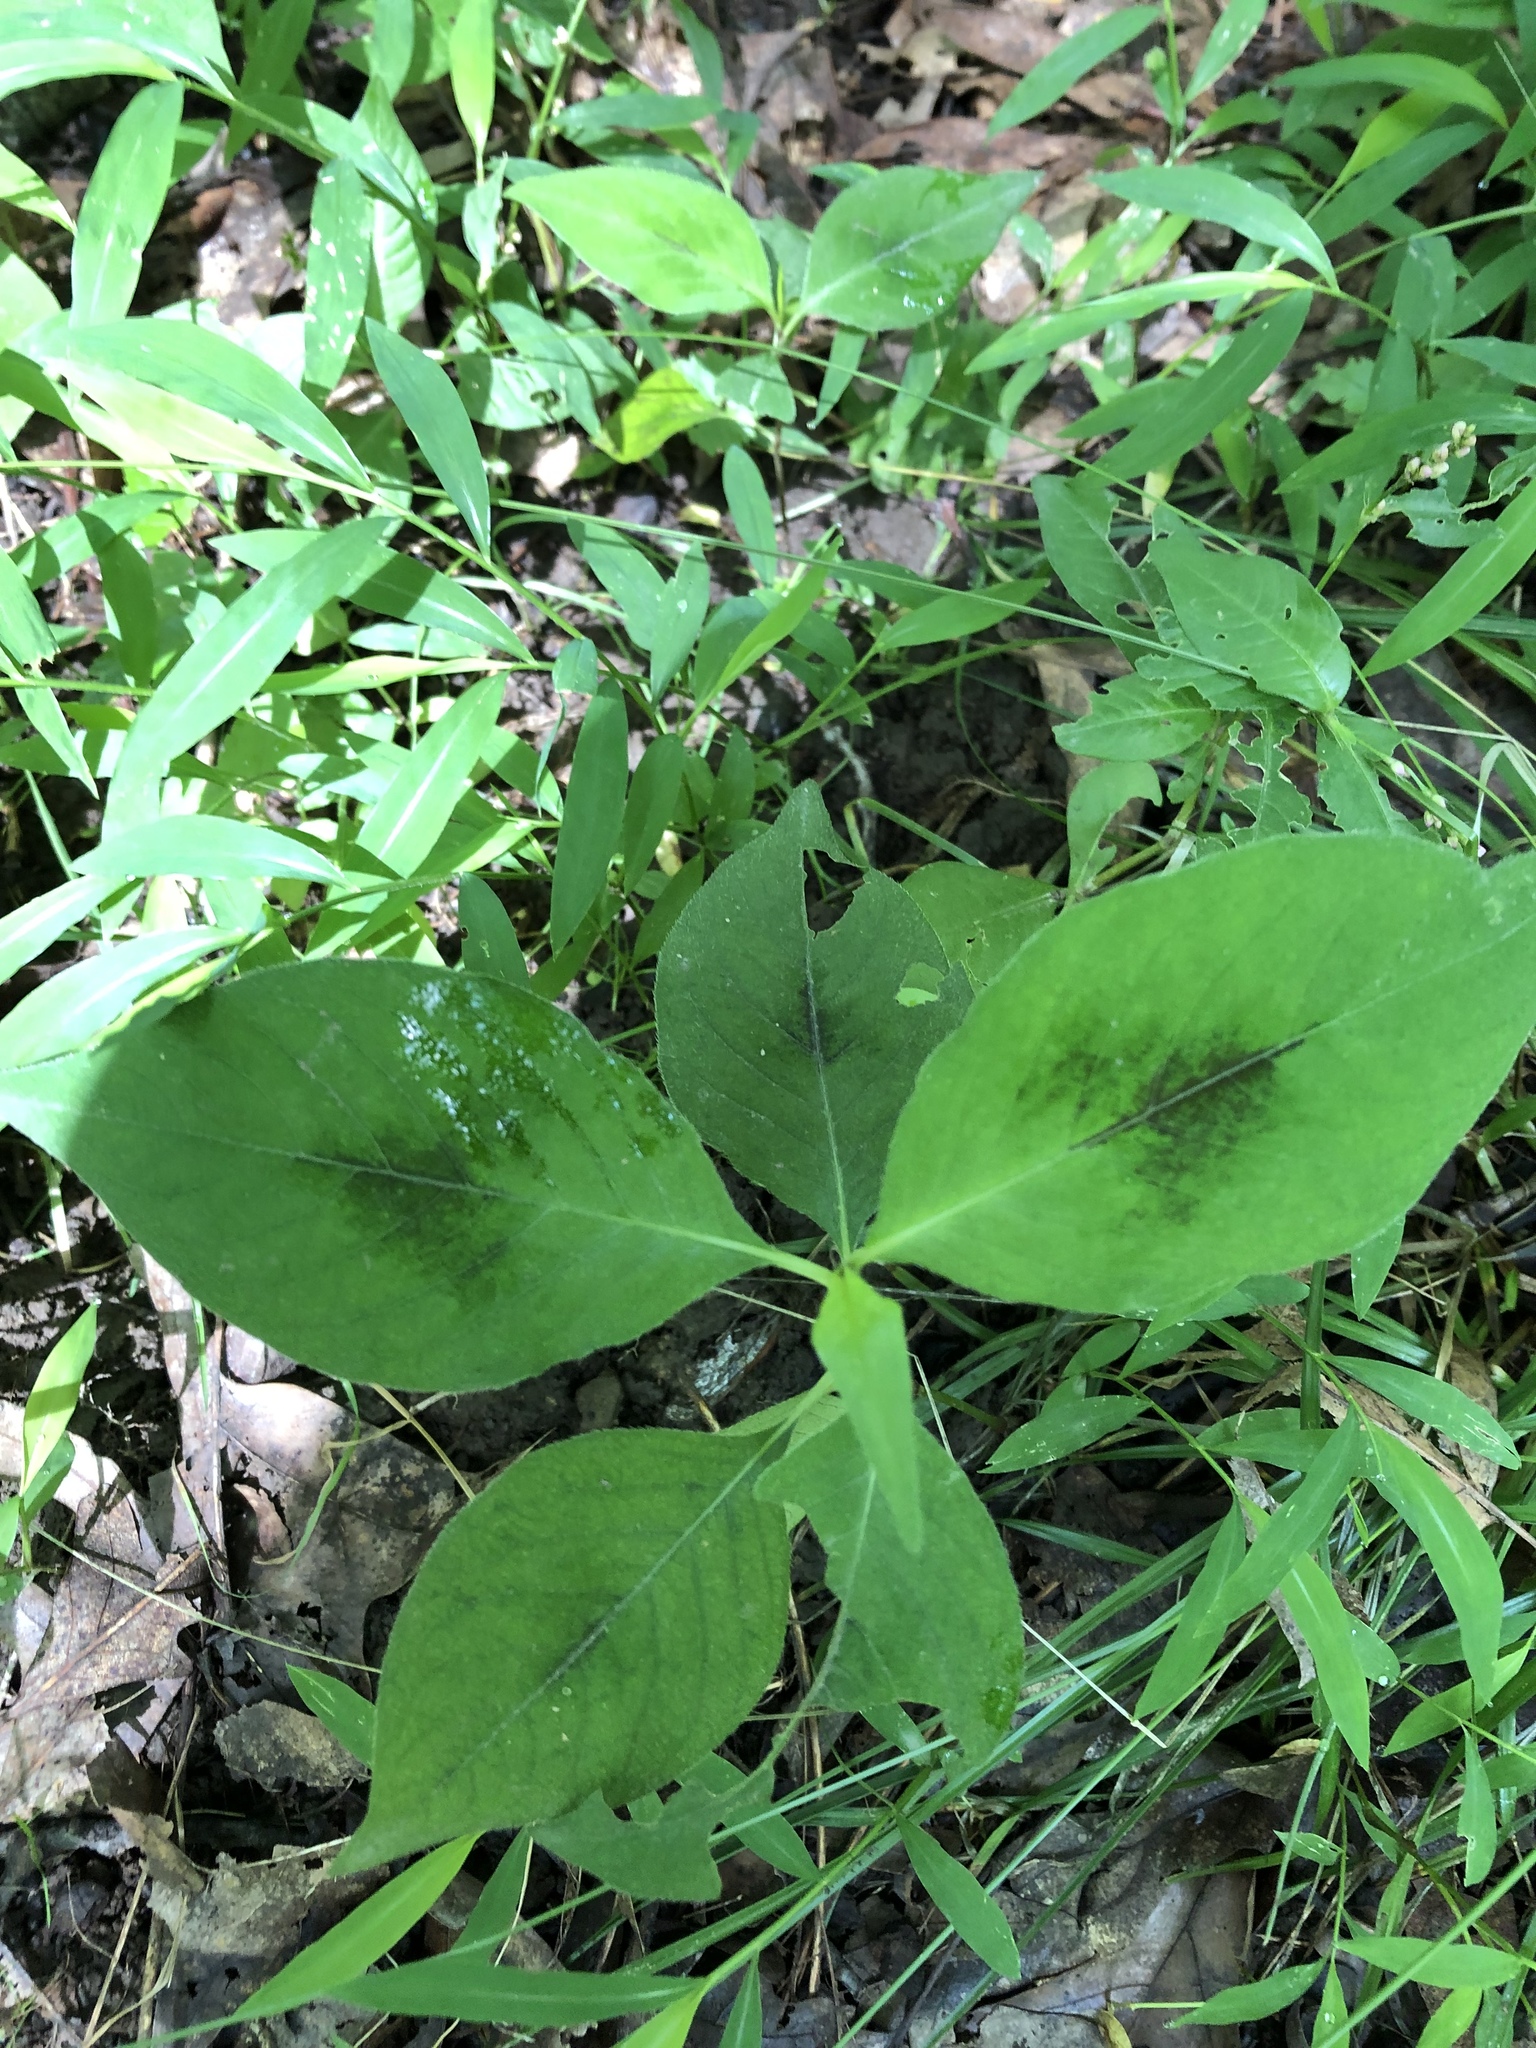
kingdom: Plantae
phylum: Tracheophyta
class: Magnoliopsida
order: Caryophyllales
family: Polygonaceae
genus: Persicaria
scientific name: Persicaria virginiana
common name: Jumpseed
